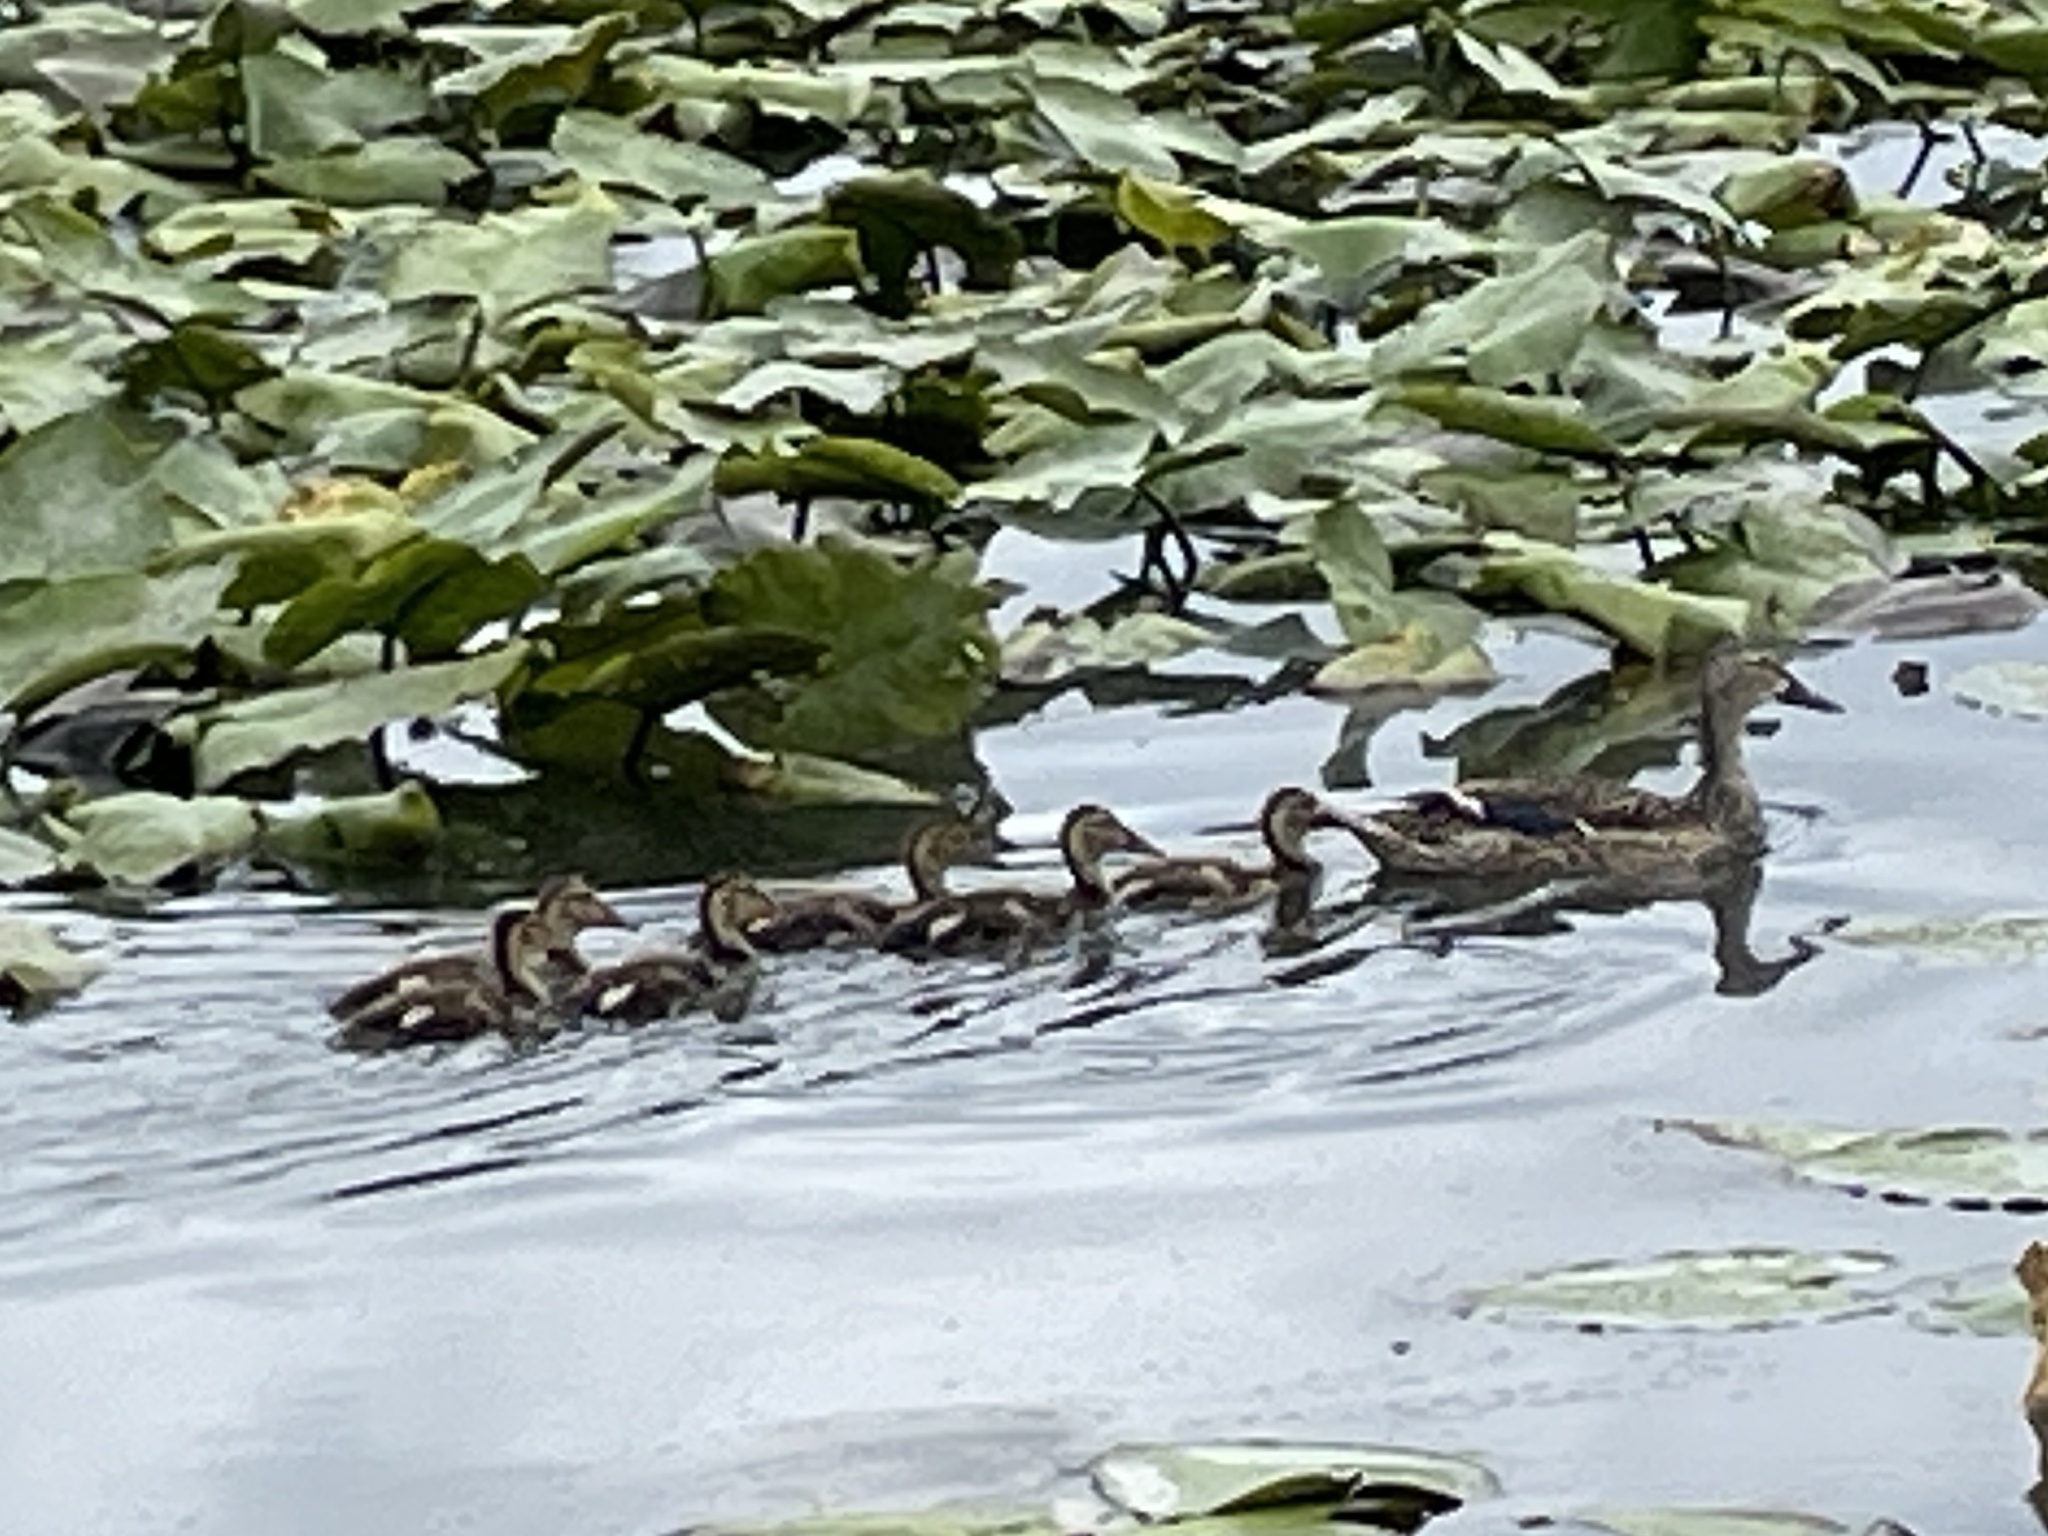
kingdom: Animalia
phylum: Chordata
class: Aves
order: Anseriformes
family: Anatidae
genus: Anas
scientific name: Anas platyrhynchos
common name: Mallard
